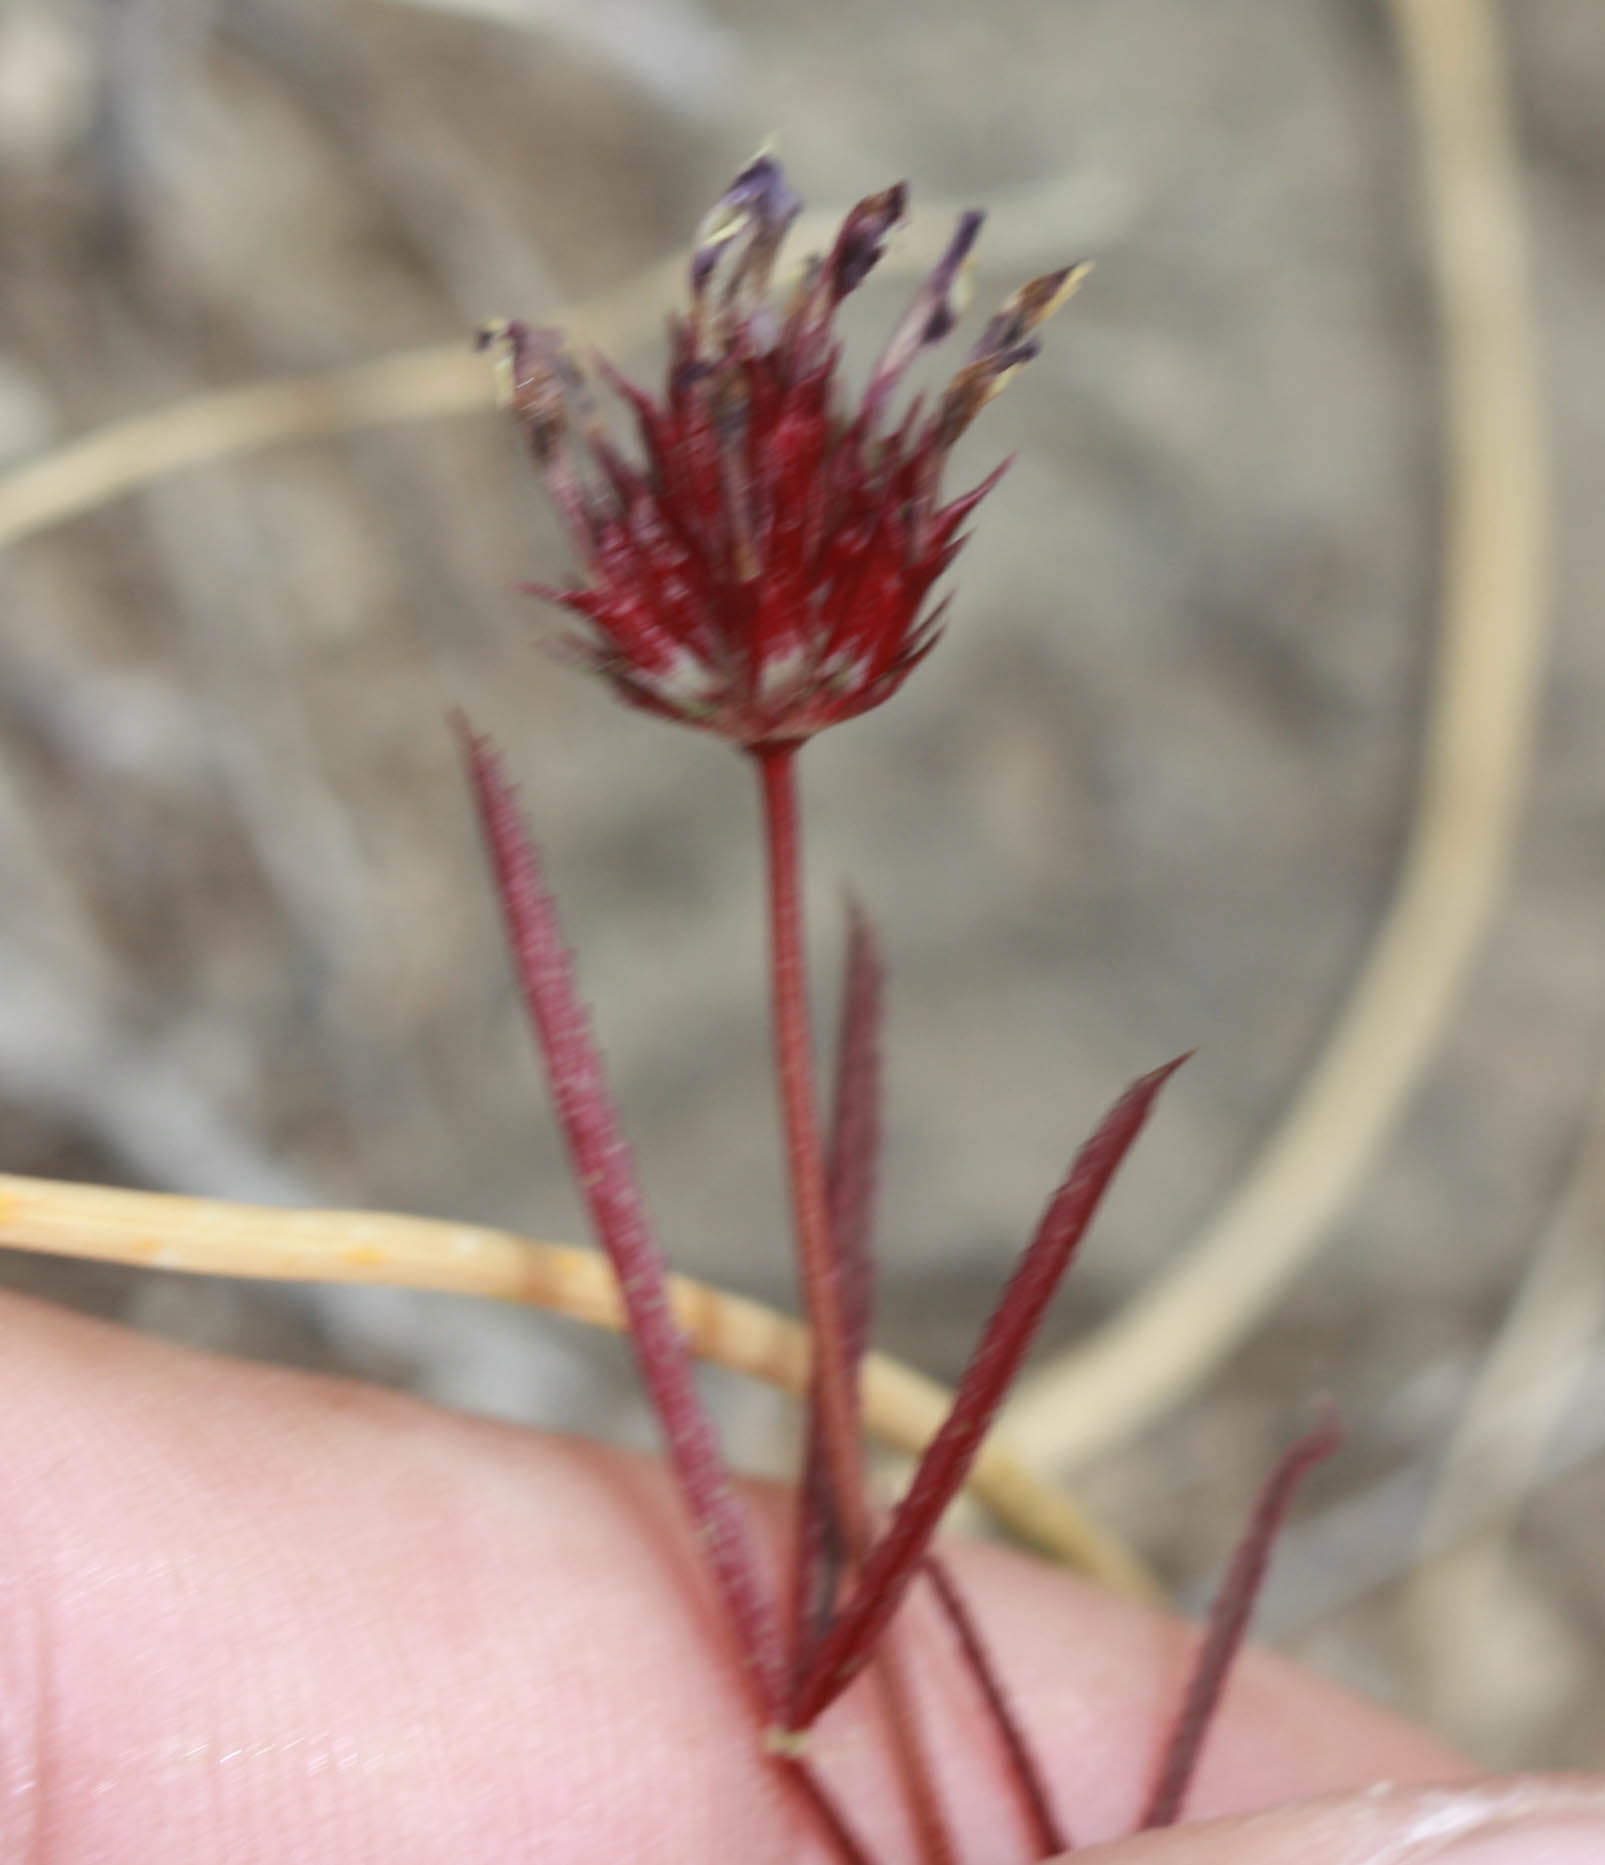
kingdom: Plantae
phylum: Tracheophyta
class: Magnoliopsida
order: Fabales
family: Fabaceae
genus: Trifolium
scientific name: Trifolium willdenovii
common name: Tomcat clover
